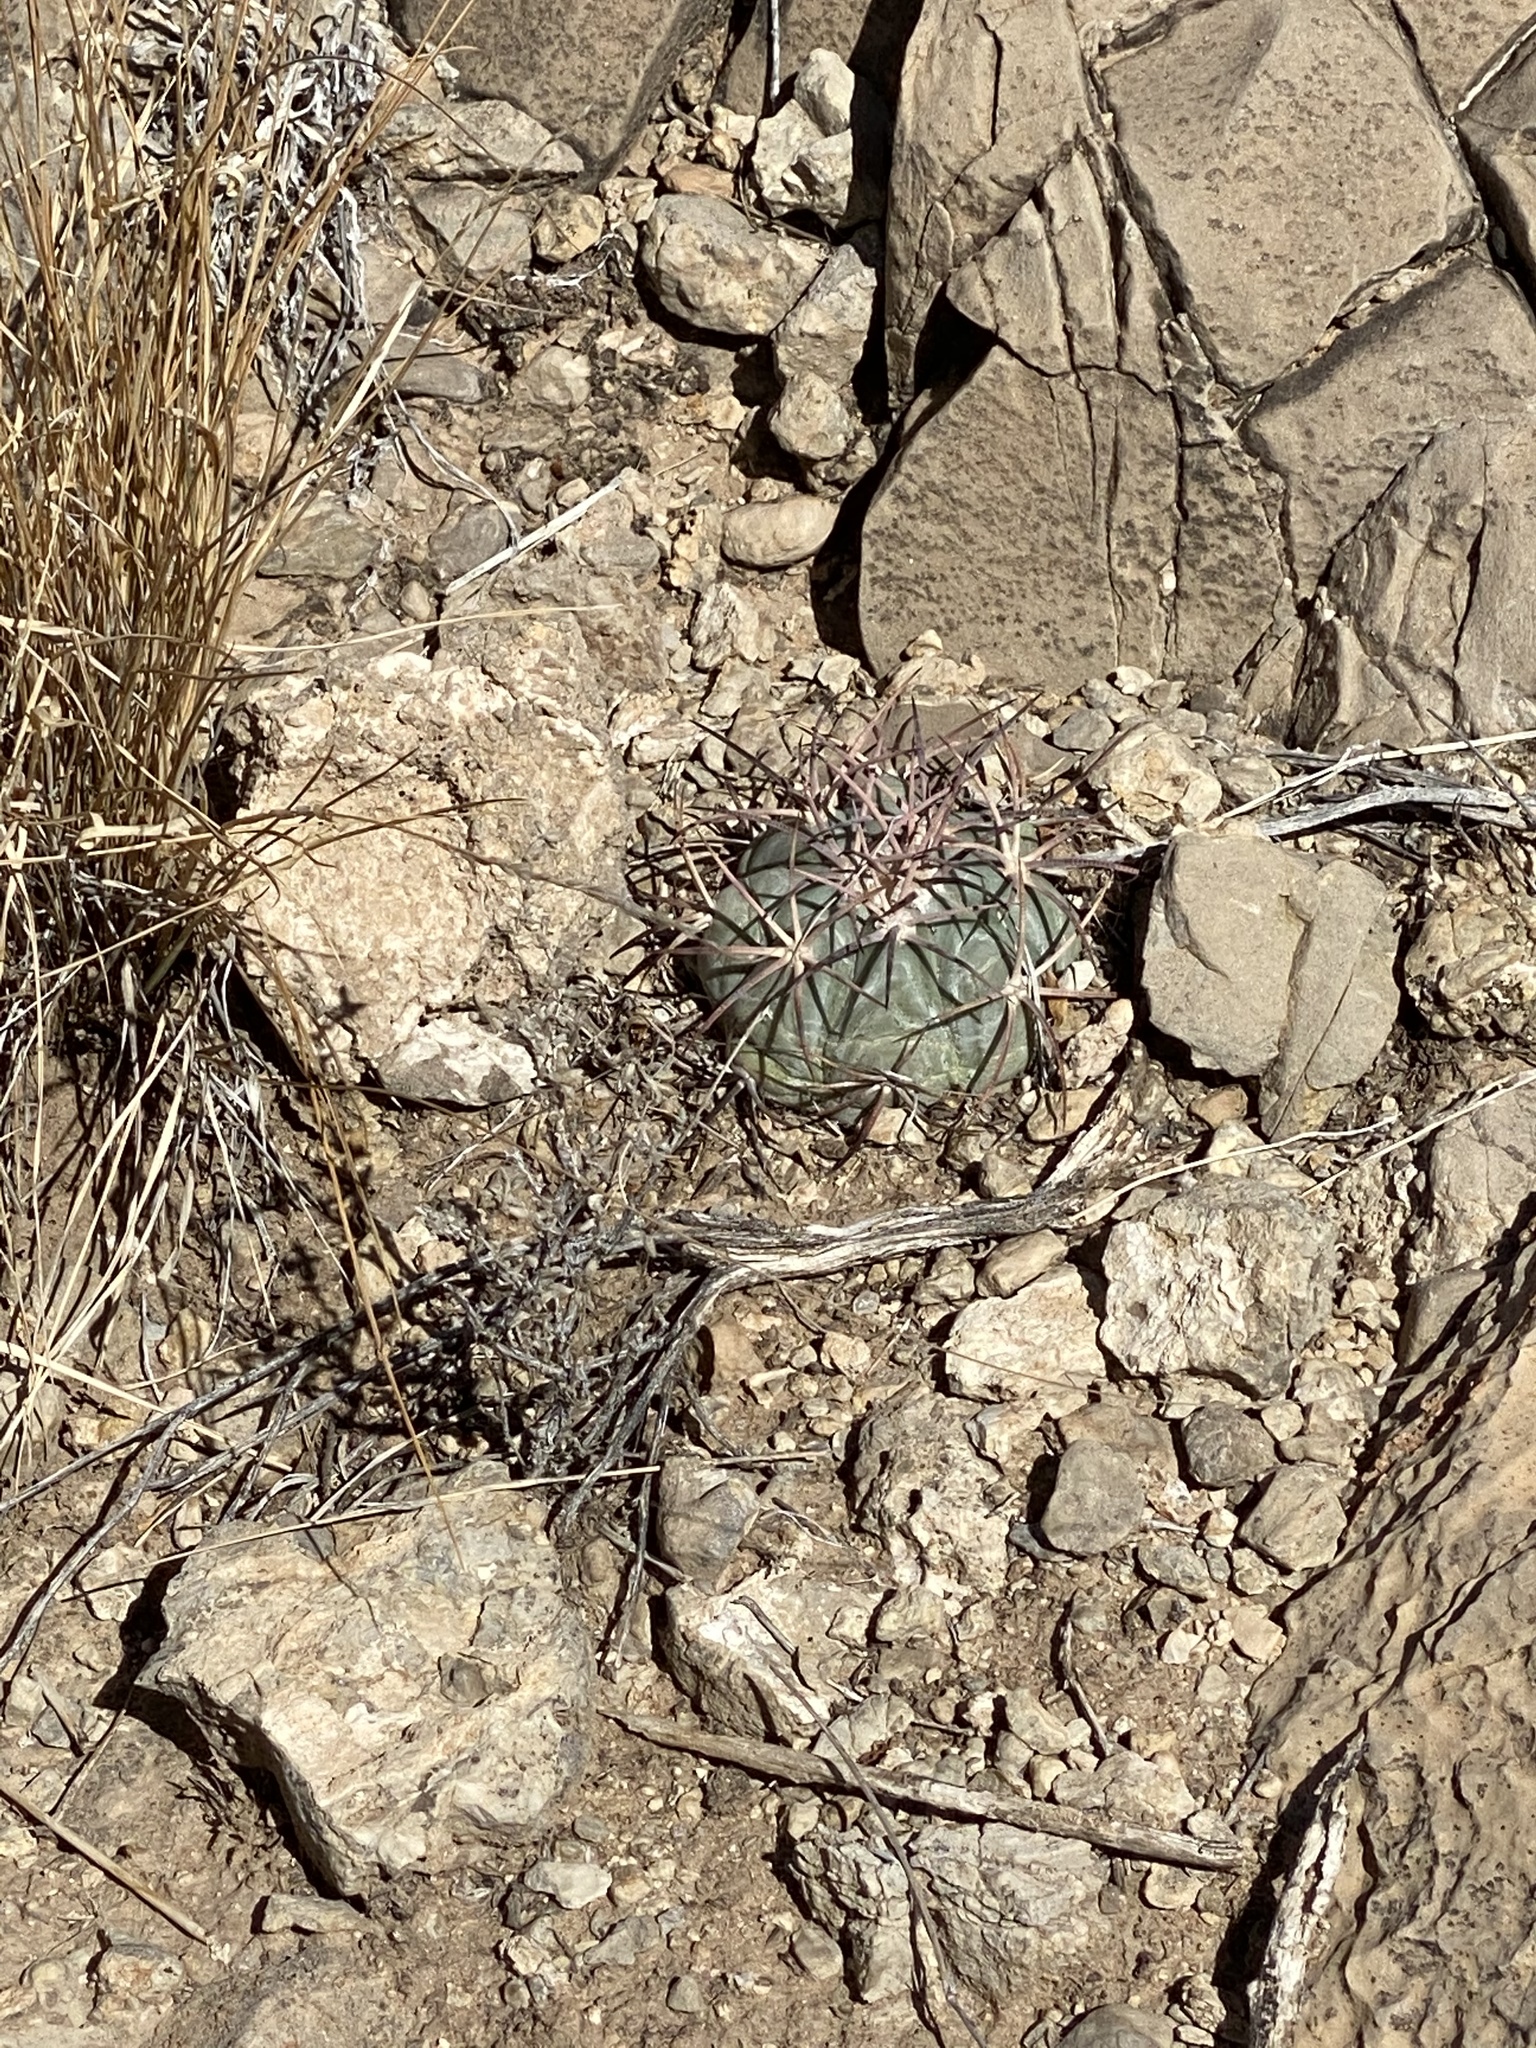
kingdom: Plantae
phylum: Tracheophyta
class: Magnoliopsida
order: Caryophyllales
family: Cactaceae
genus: Echinocactus
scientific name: Echinocactus horizonthalonius
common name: Devilshead
